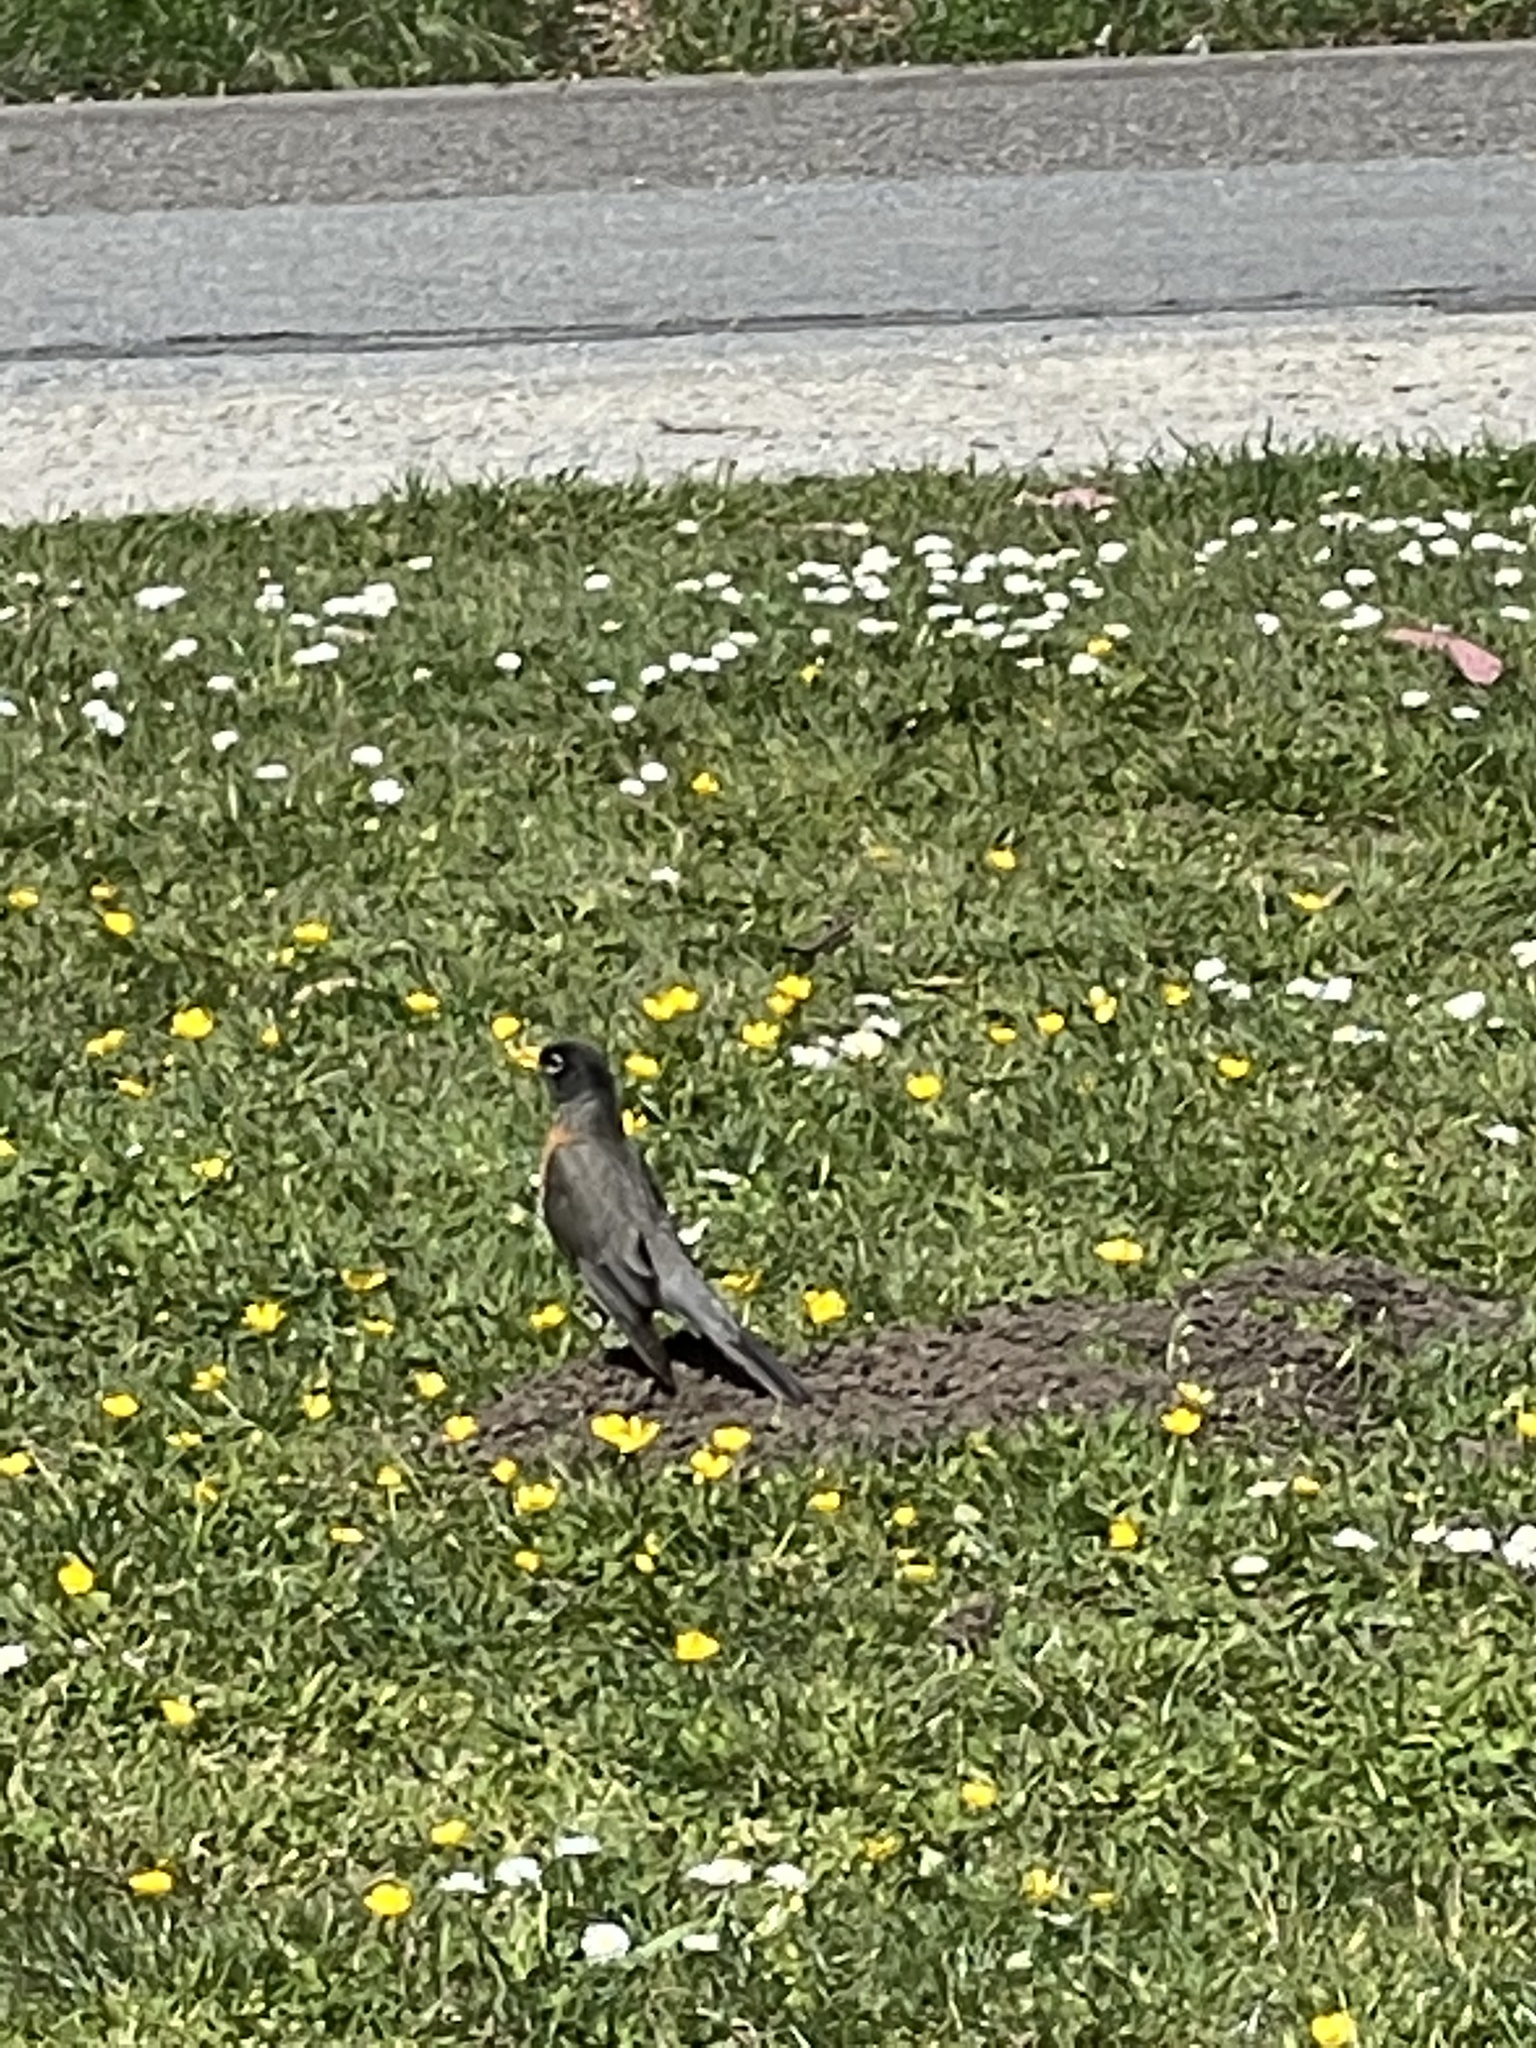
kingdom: Animalia
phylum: Chordata
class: Aves
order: Passeriformes
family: Turdidae
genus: Turdus
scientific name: Turdus migratorius
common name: American robin
